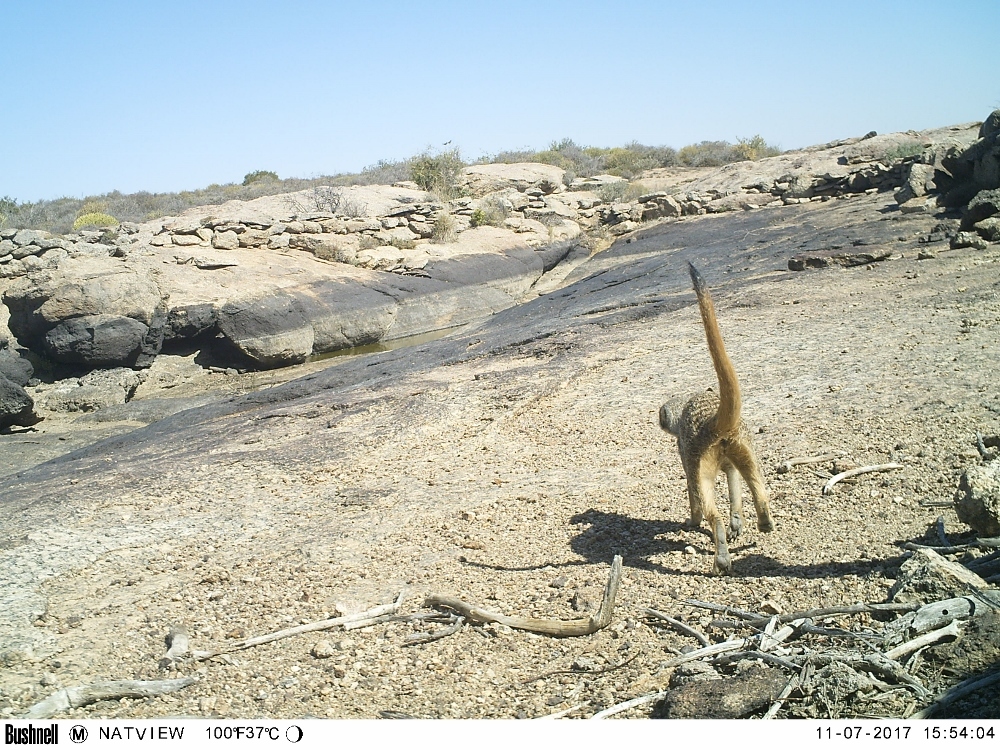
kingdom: Animalia
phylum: Chordata
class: Mammalia
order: Carnivora
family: Herpestidae
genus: Suricata
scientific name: Suricata suricatta
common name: Meerkat
